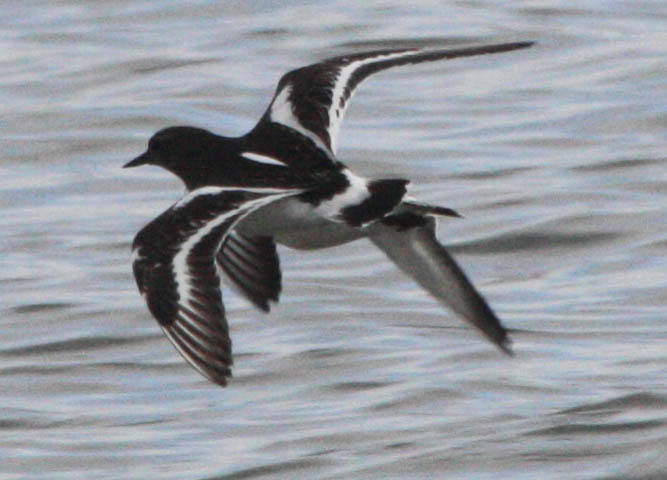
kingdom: Animalia
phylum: Chordata
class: Aves
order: Charadriiformes
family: Scolopacidae
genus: Arenaria
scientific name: Arenaria melanocephala
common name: Black turnstone
